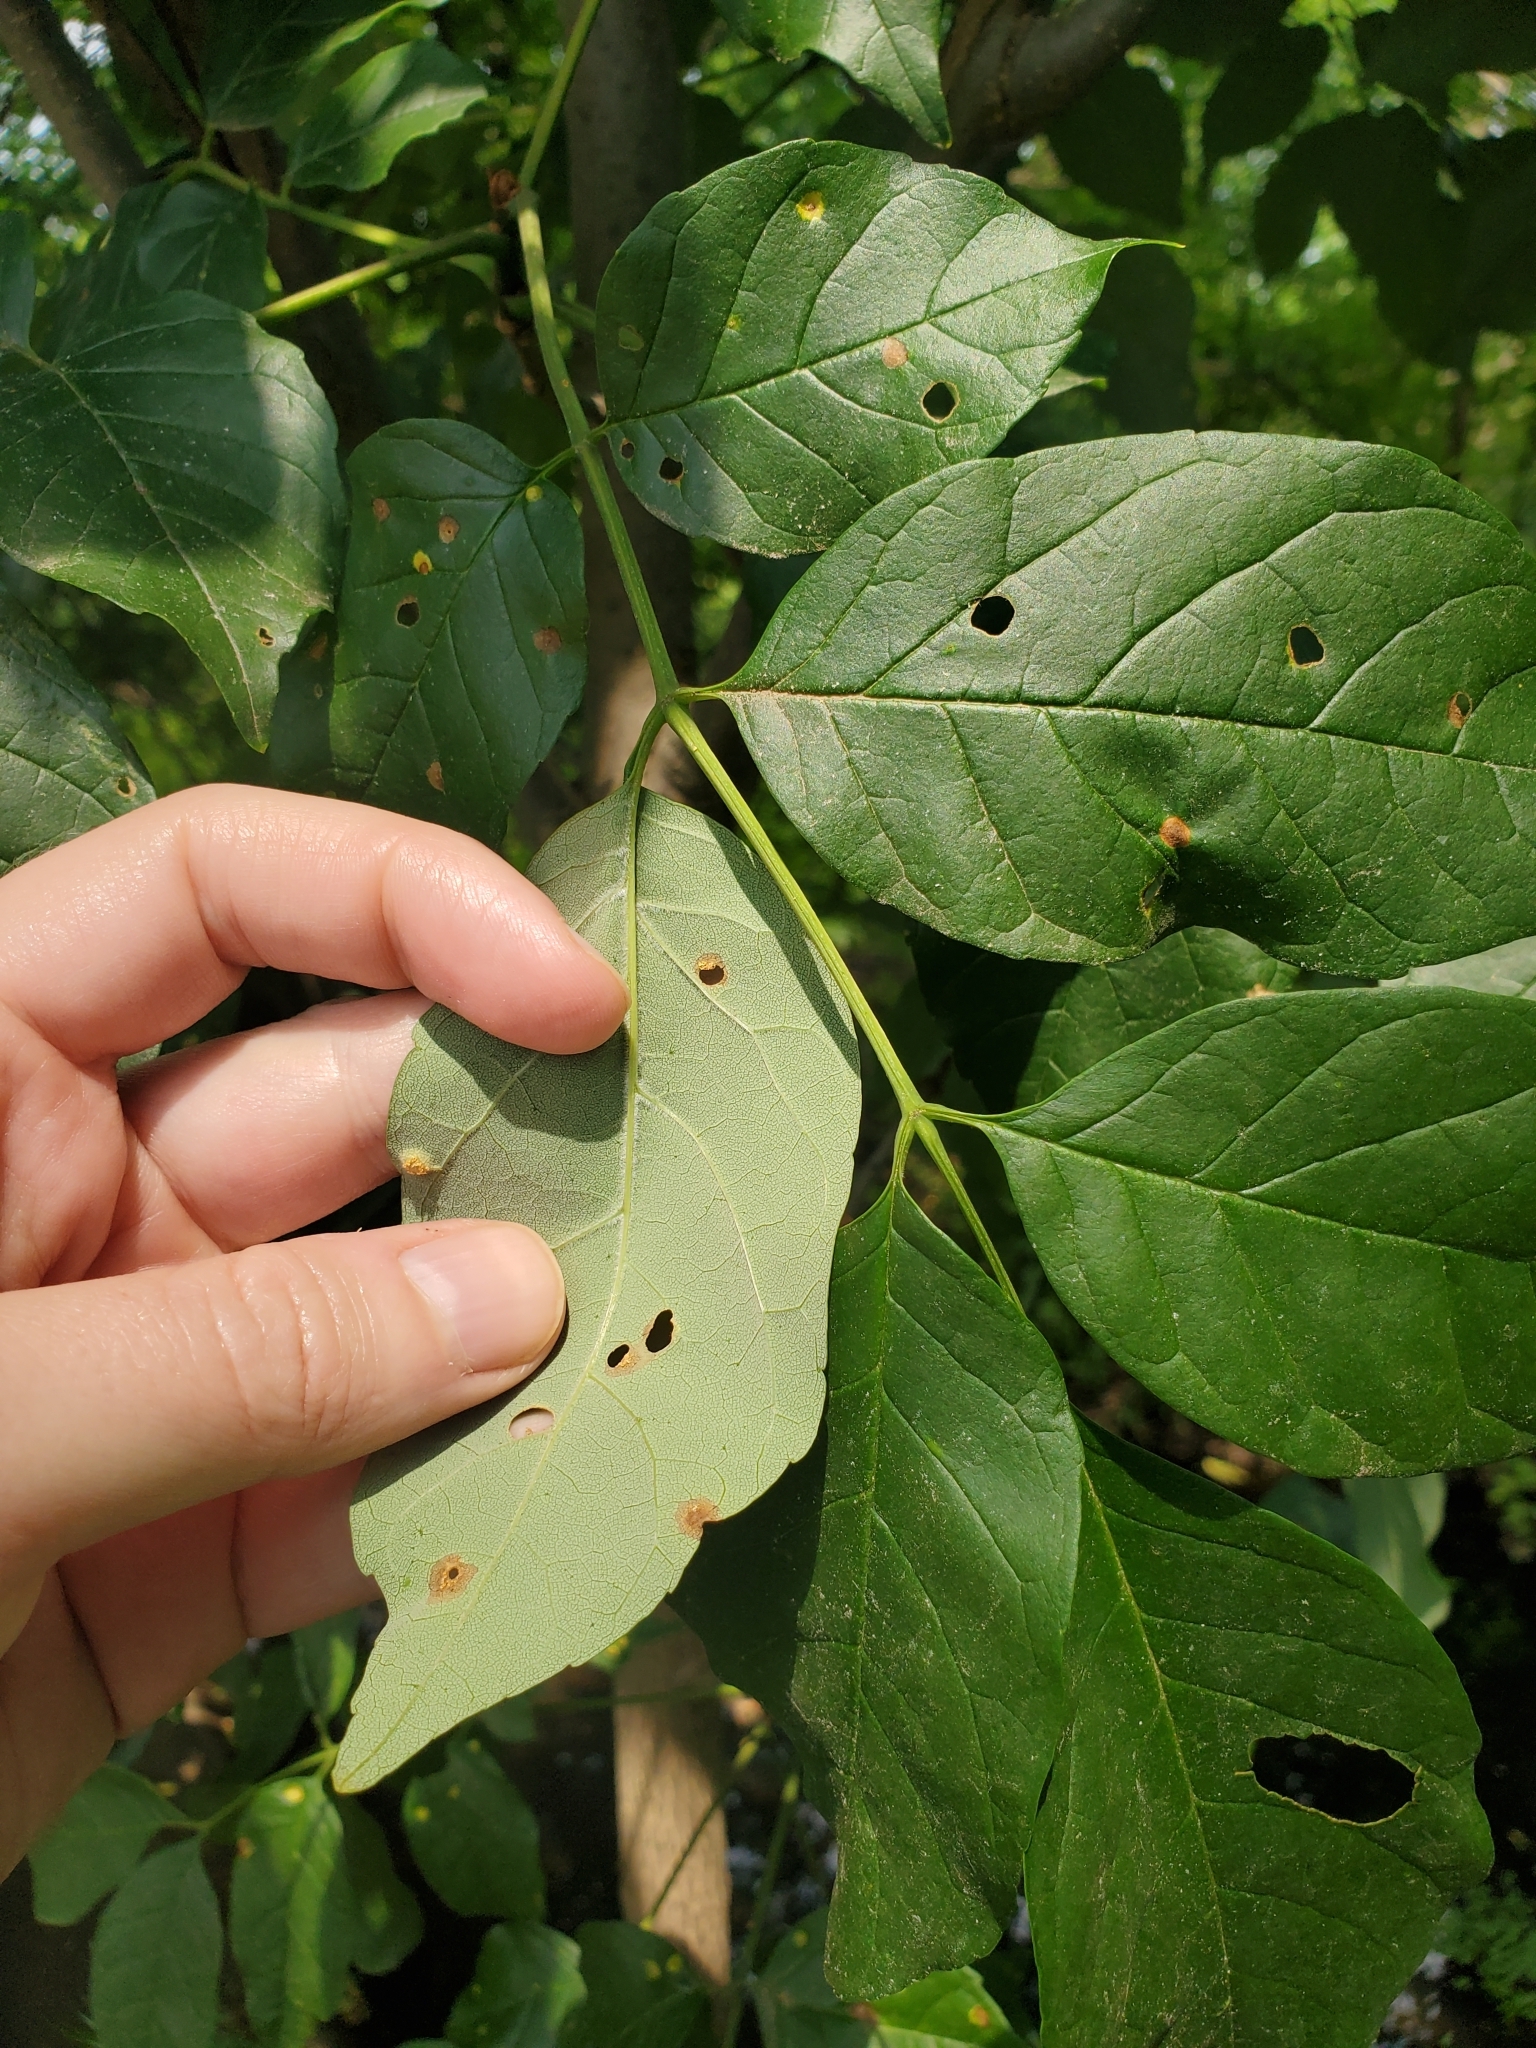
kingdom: Plantae
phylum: Tracheophyta
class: Magnoliopsida
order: Lamiales
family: Oleaceae
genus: Fraxinus
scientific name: Fraxinus americana
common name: White ash
